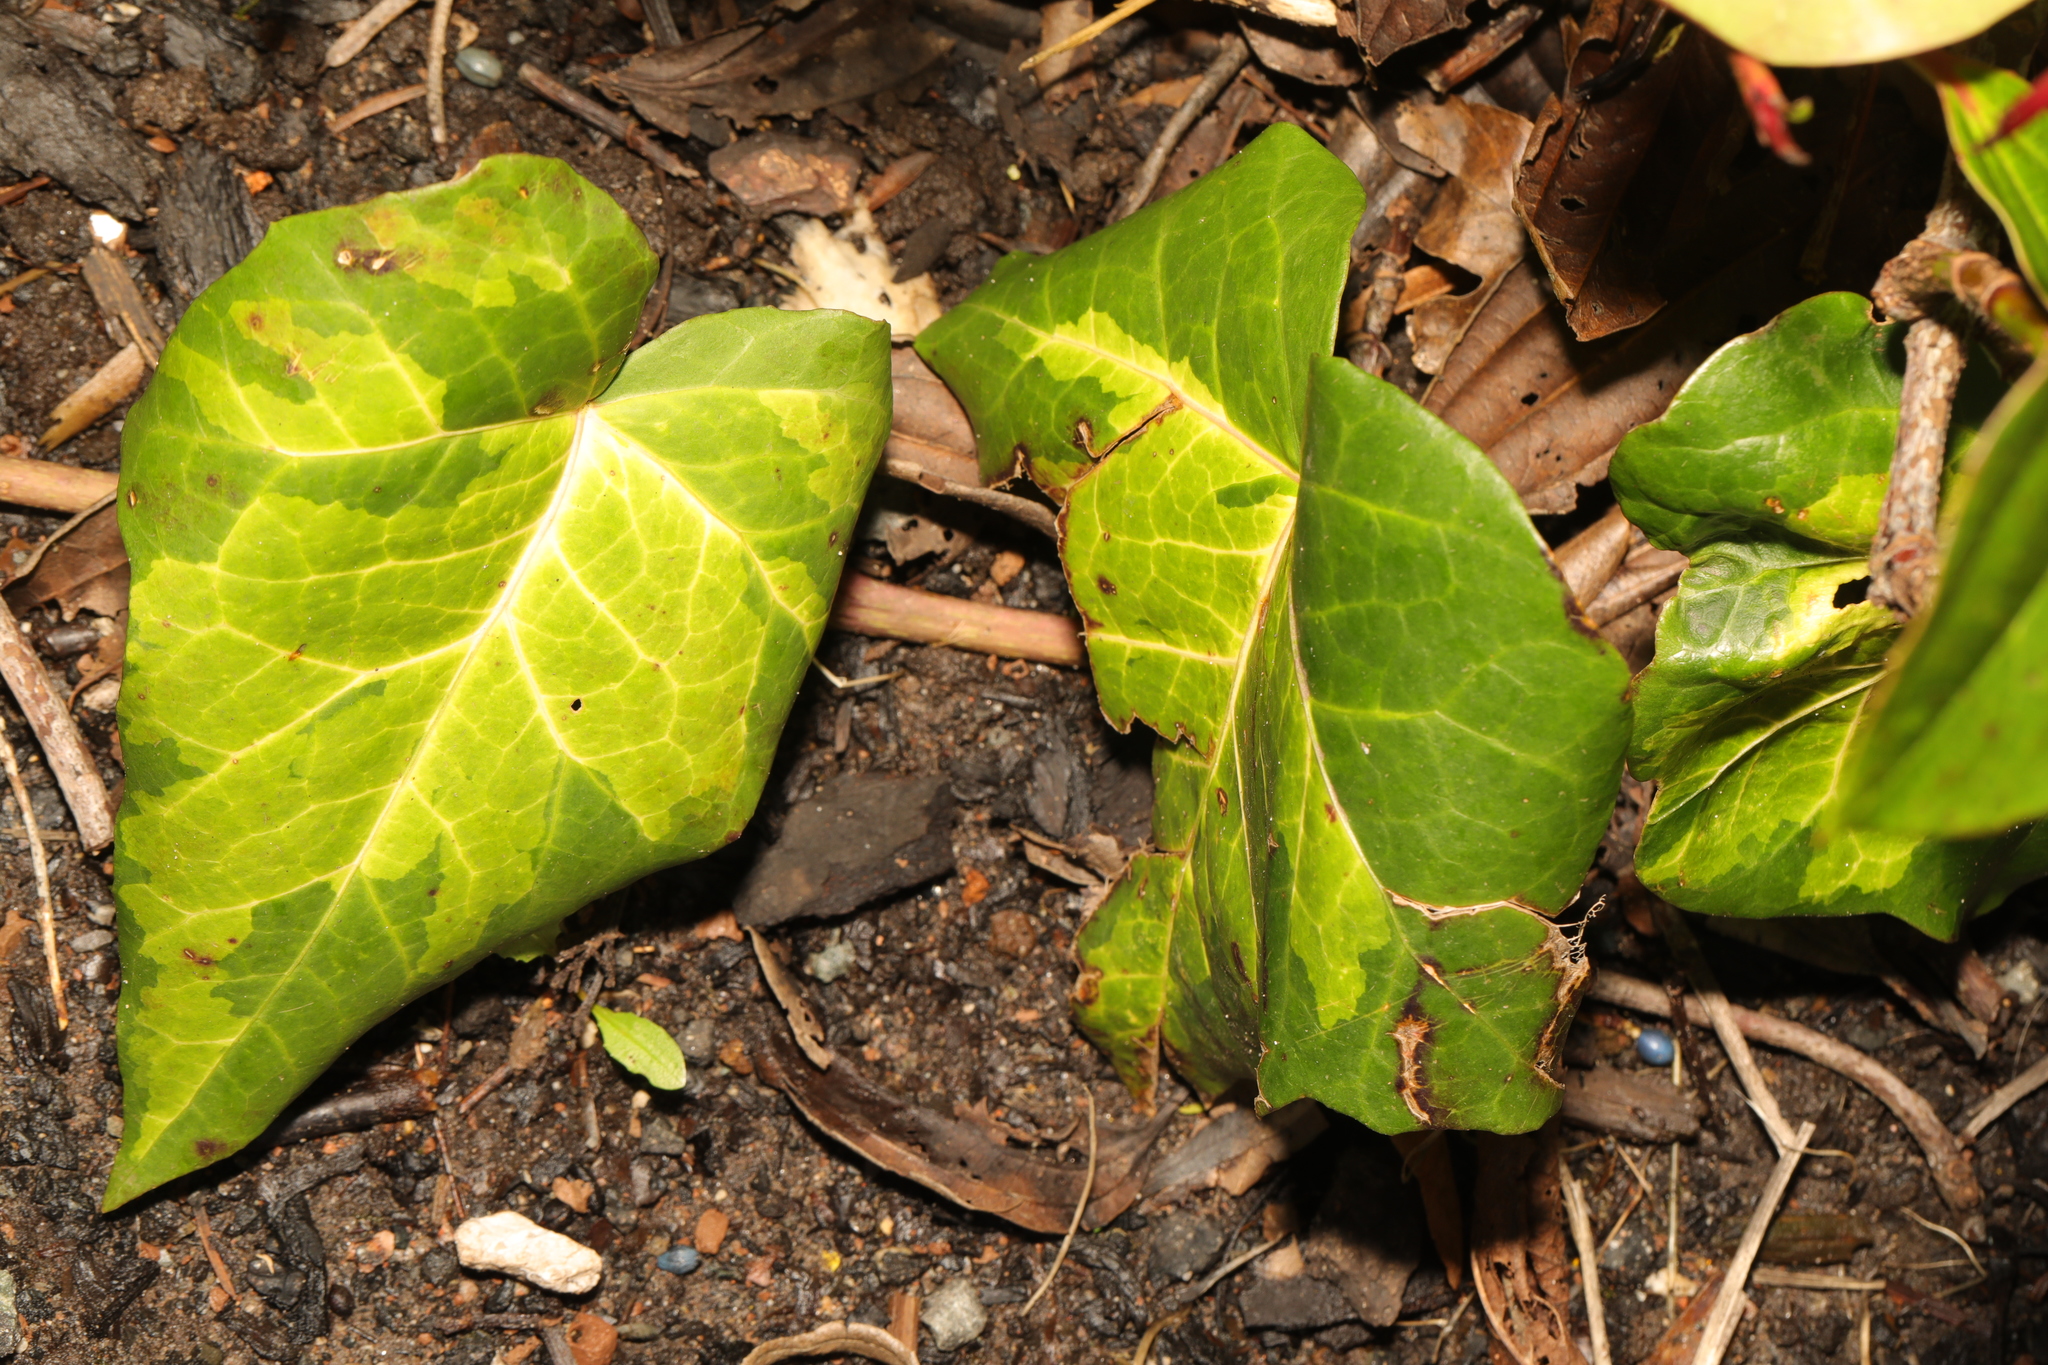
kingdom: Plantae
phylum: Tracheophyta
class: Magnoliopsida
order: Apiales
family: Araliaceae
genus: Hedera
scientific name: Hedera colchica
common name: Persian ivy
